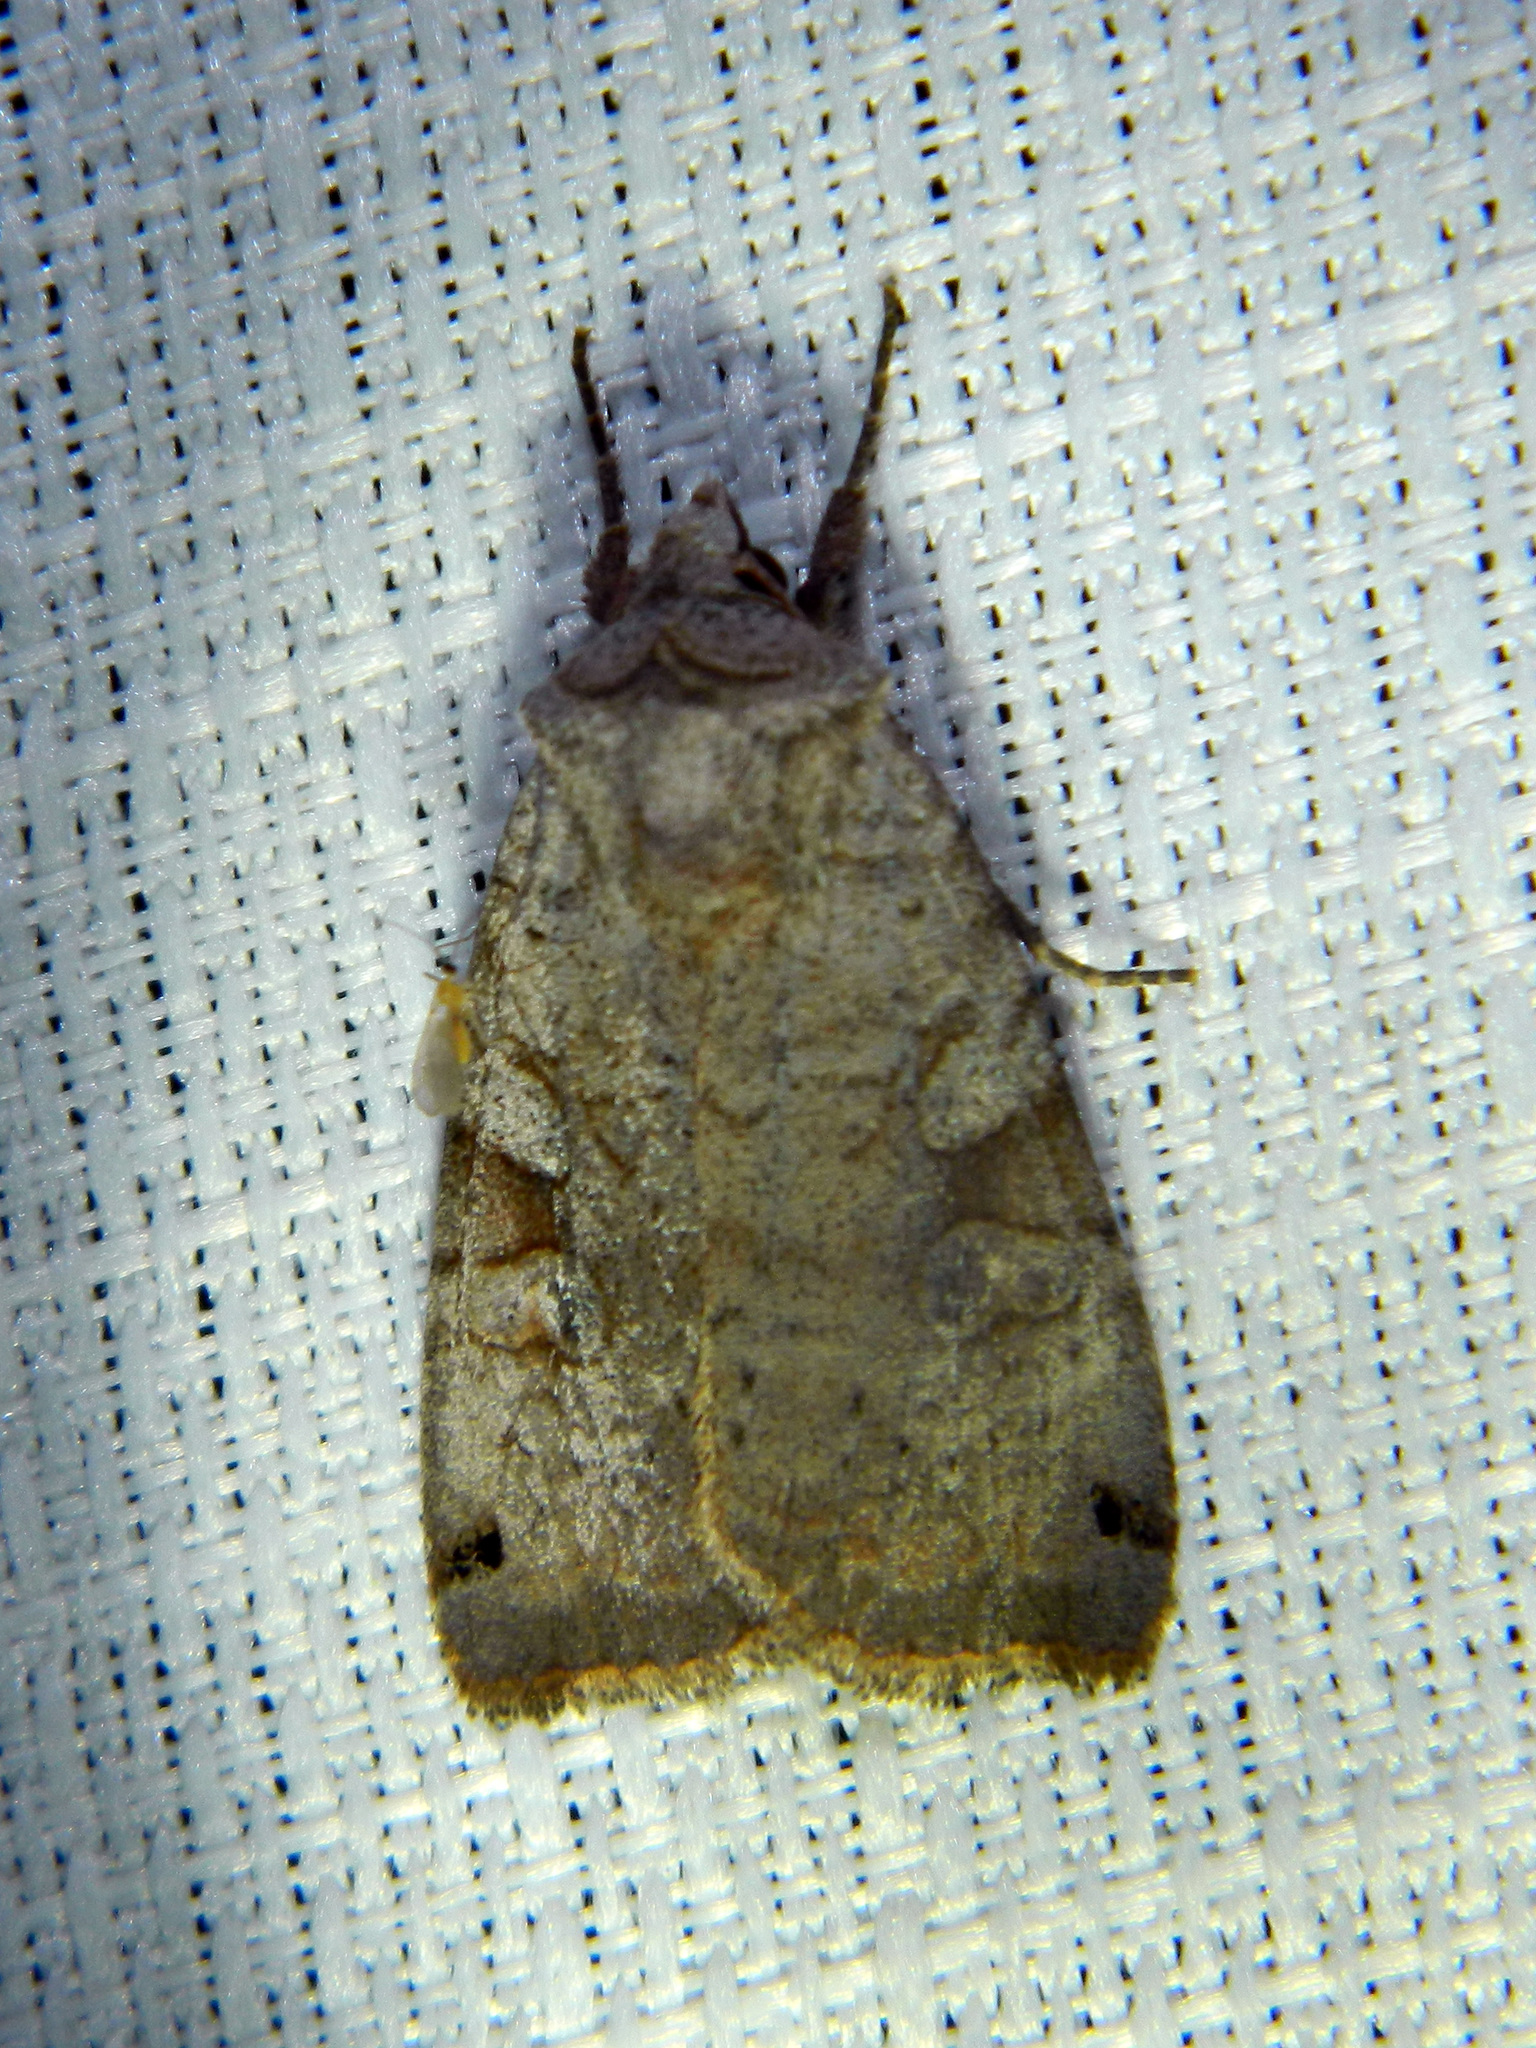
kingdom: Animalia
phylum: Arthropoda
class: Insecta
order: Lepidoptera
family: Noctuidae
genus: Xestia
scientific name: Xestia smithii
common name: Smith's dart
